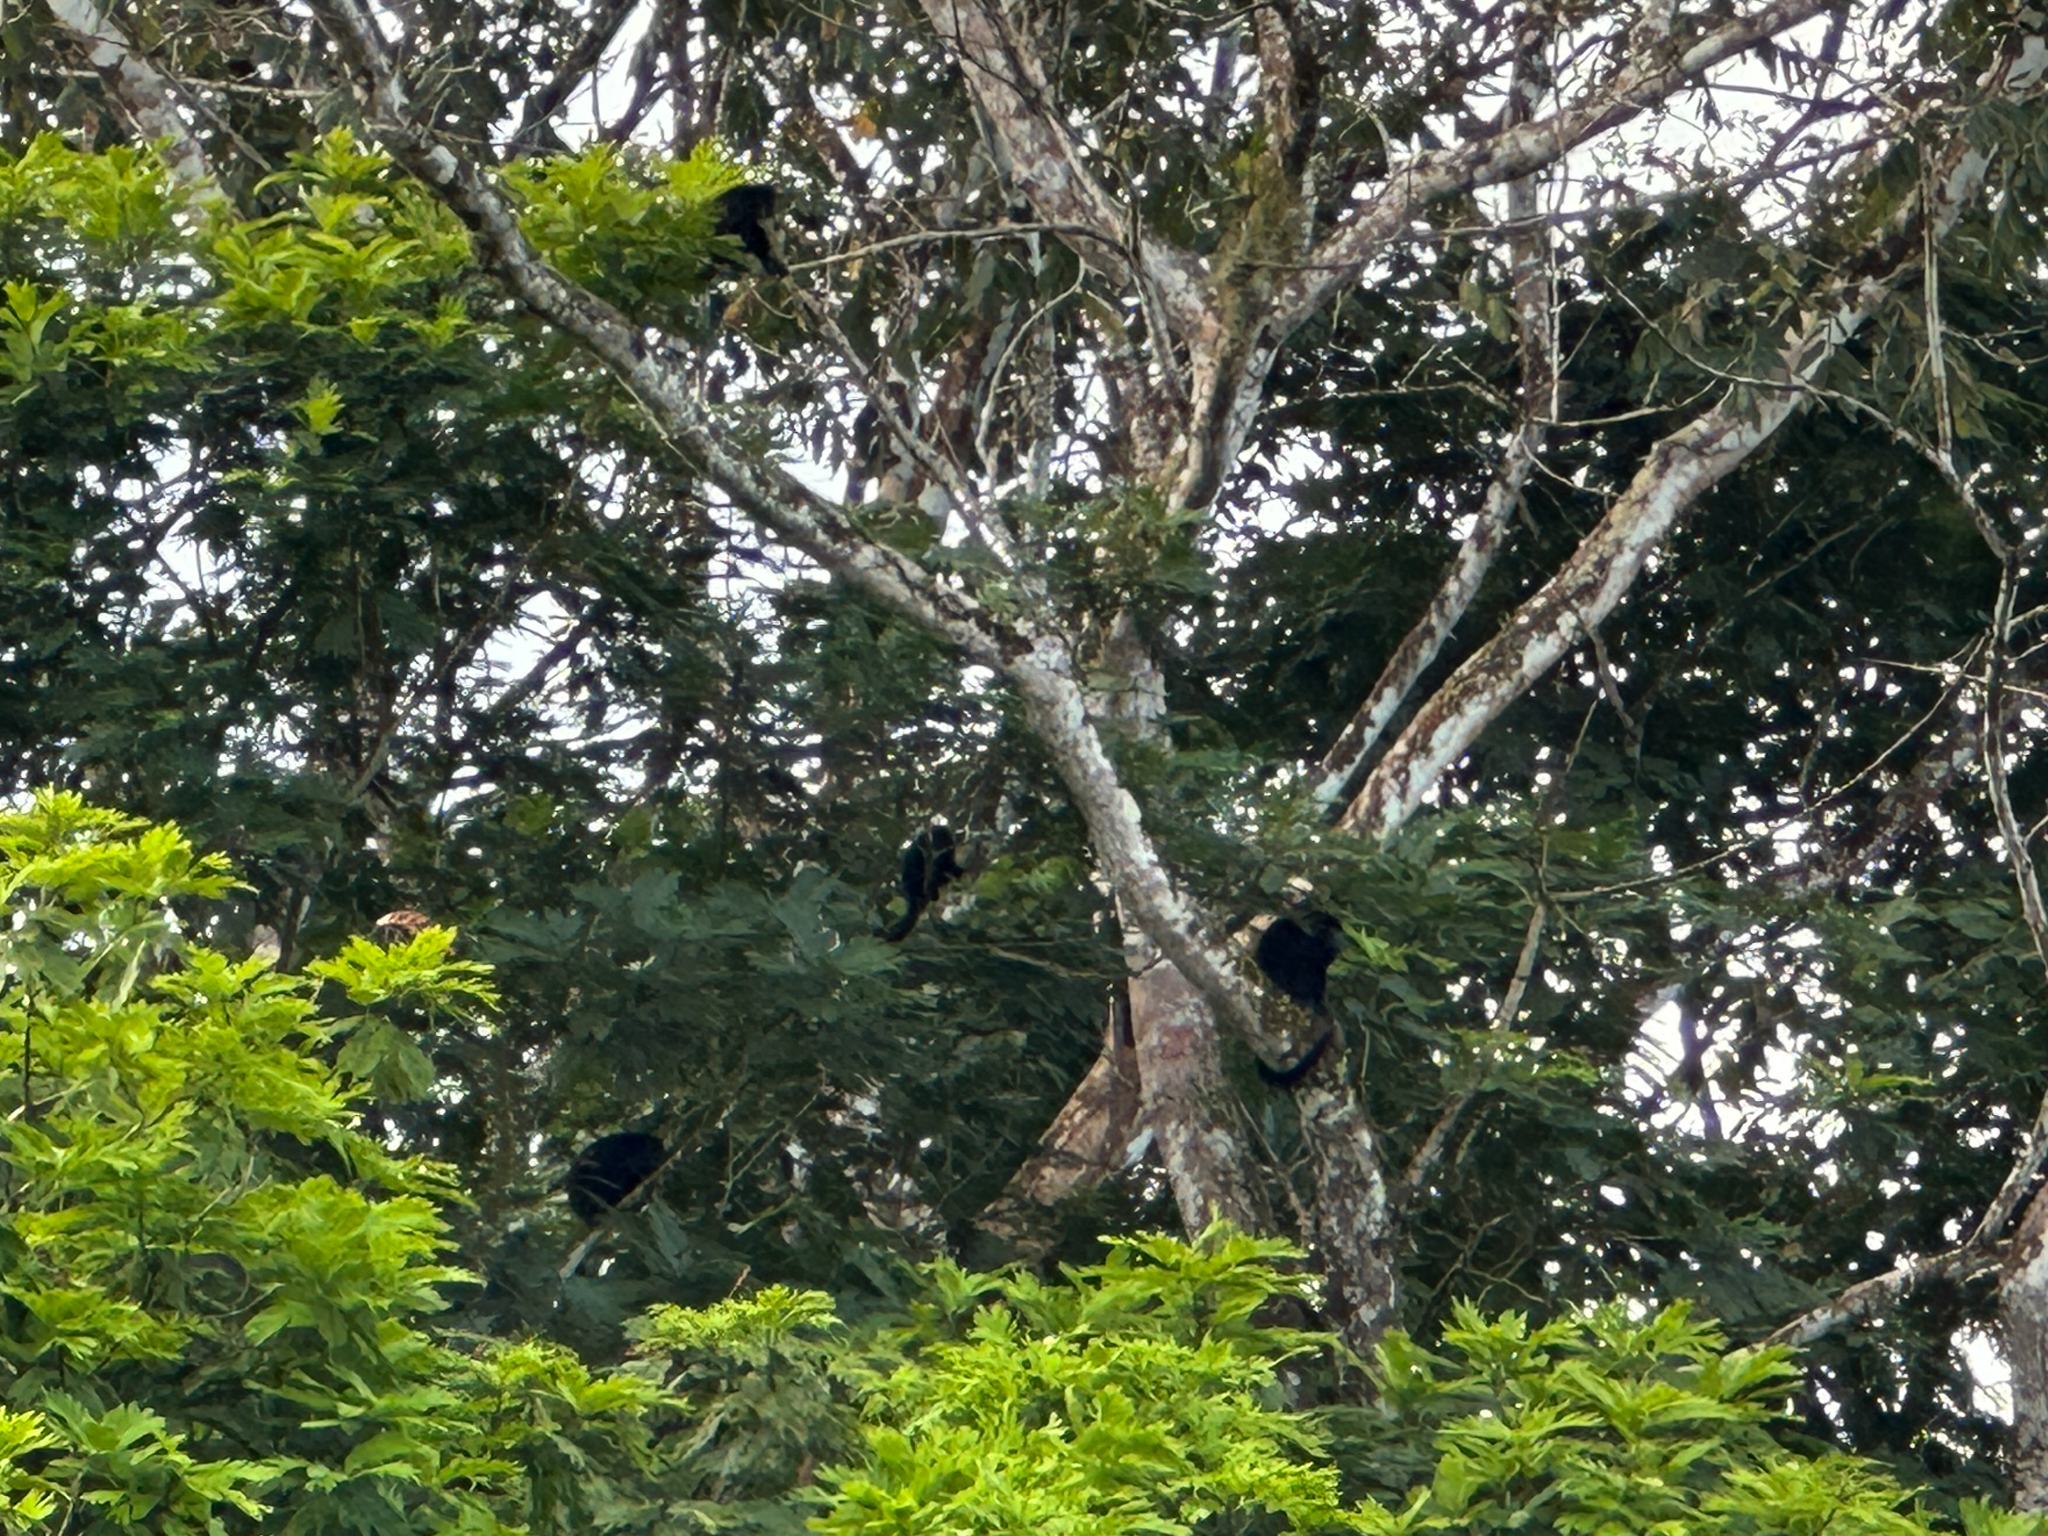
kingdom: Animalia
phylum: Chordata
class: Mammalia
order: Primates
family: Atelidae
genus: Alouatta
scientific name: Alouatta palliata
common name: Mantled howler
